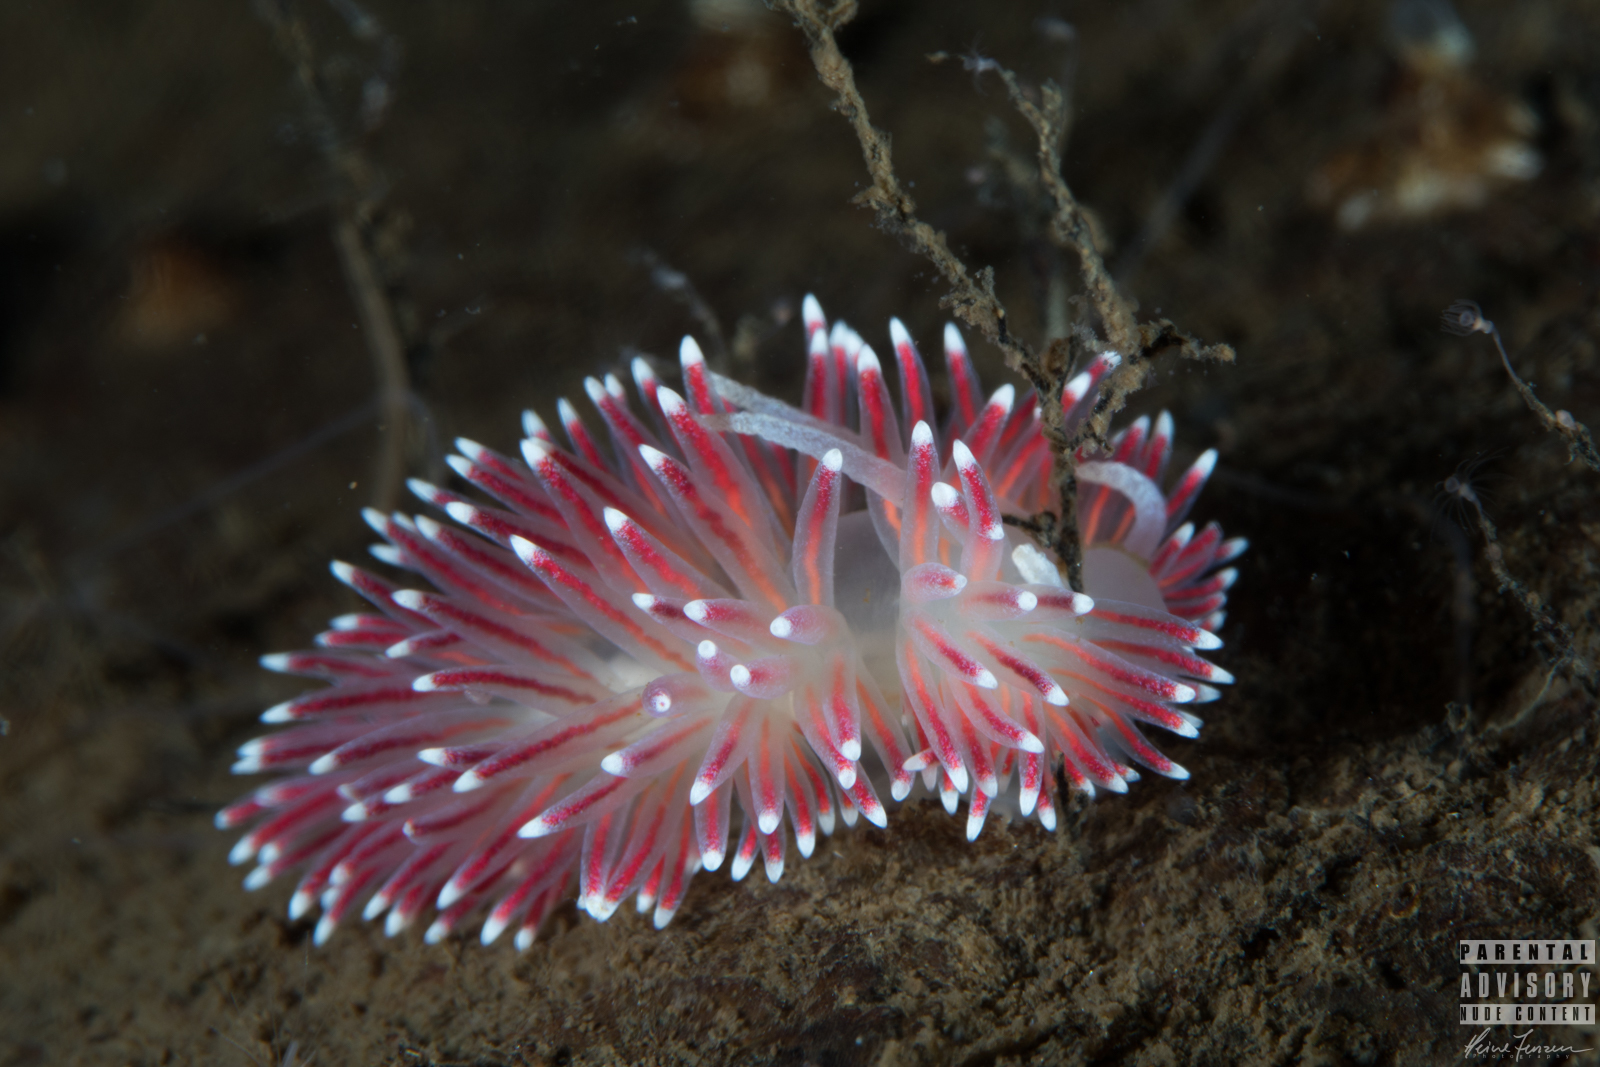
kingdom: Animalia
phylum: Mollusca
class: Gastropoda
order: Nudibranchia
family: Flabellinidae
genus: Carronella
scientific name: Carronella pellucida
